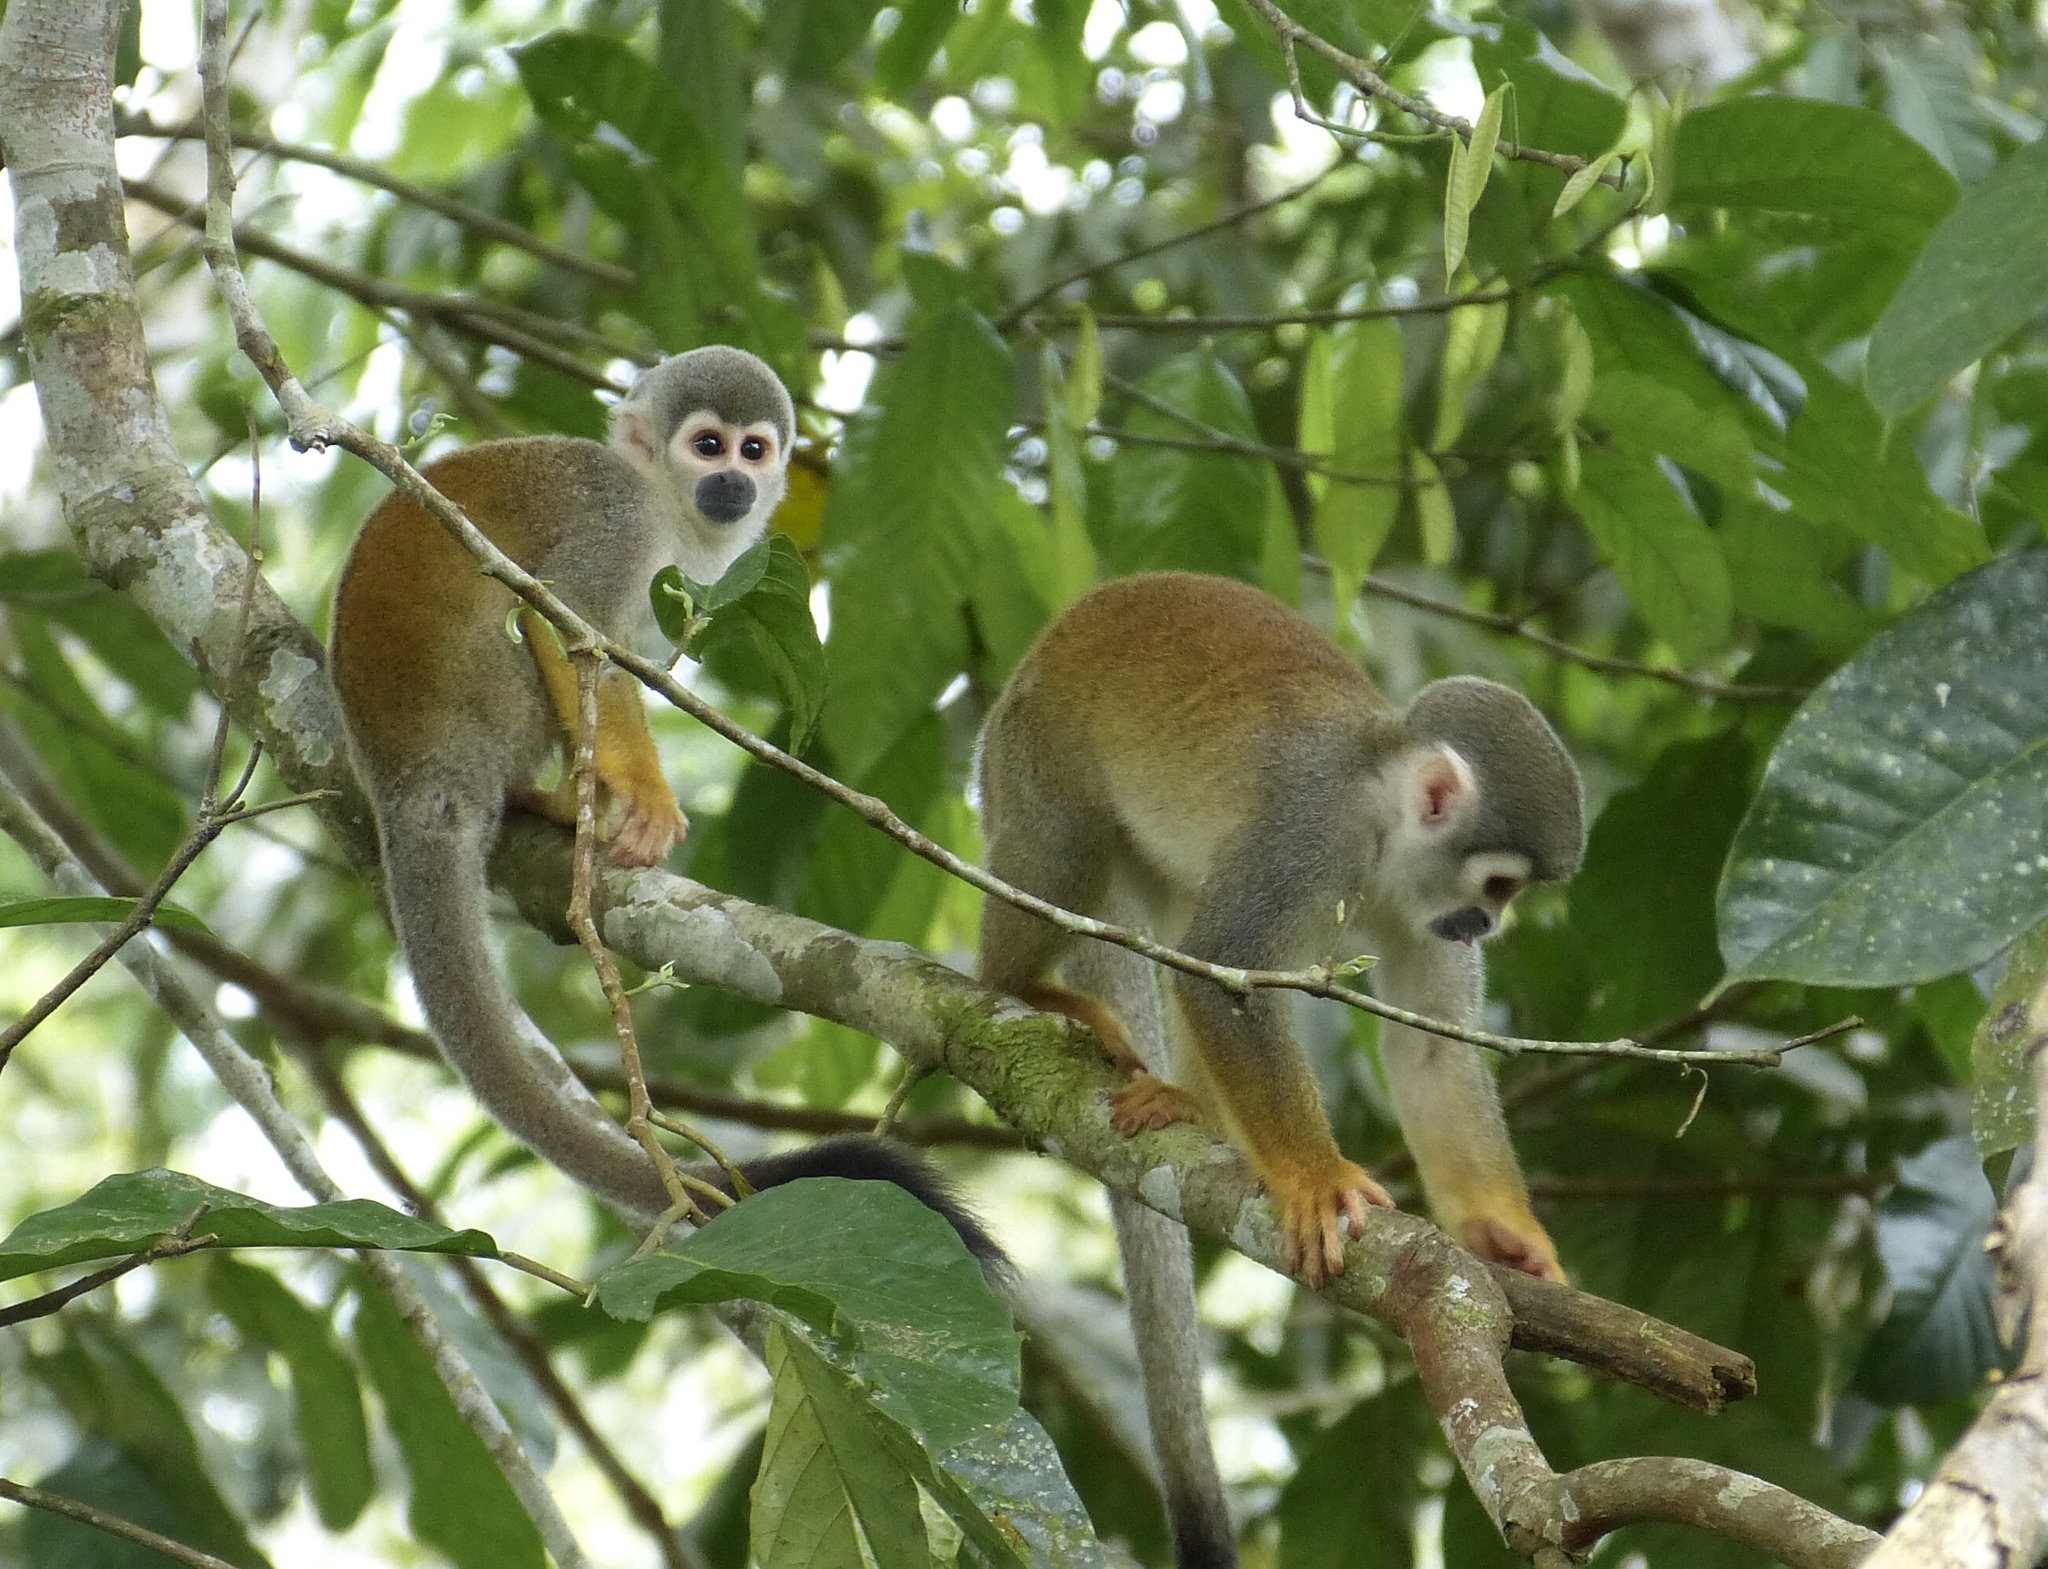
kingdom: Animalia
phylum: Chordata
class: Mammalia
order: Primates
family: Cebidae
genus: Saimiri
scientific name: Saimiri cassiquiarensis
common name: Humboldt’s squirrel monkey
